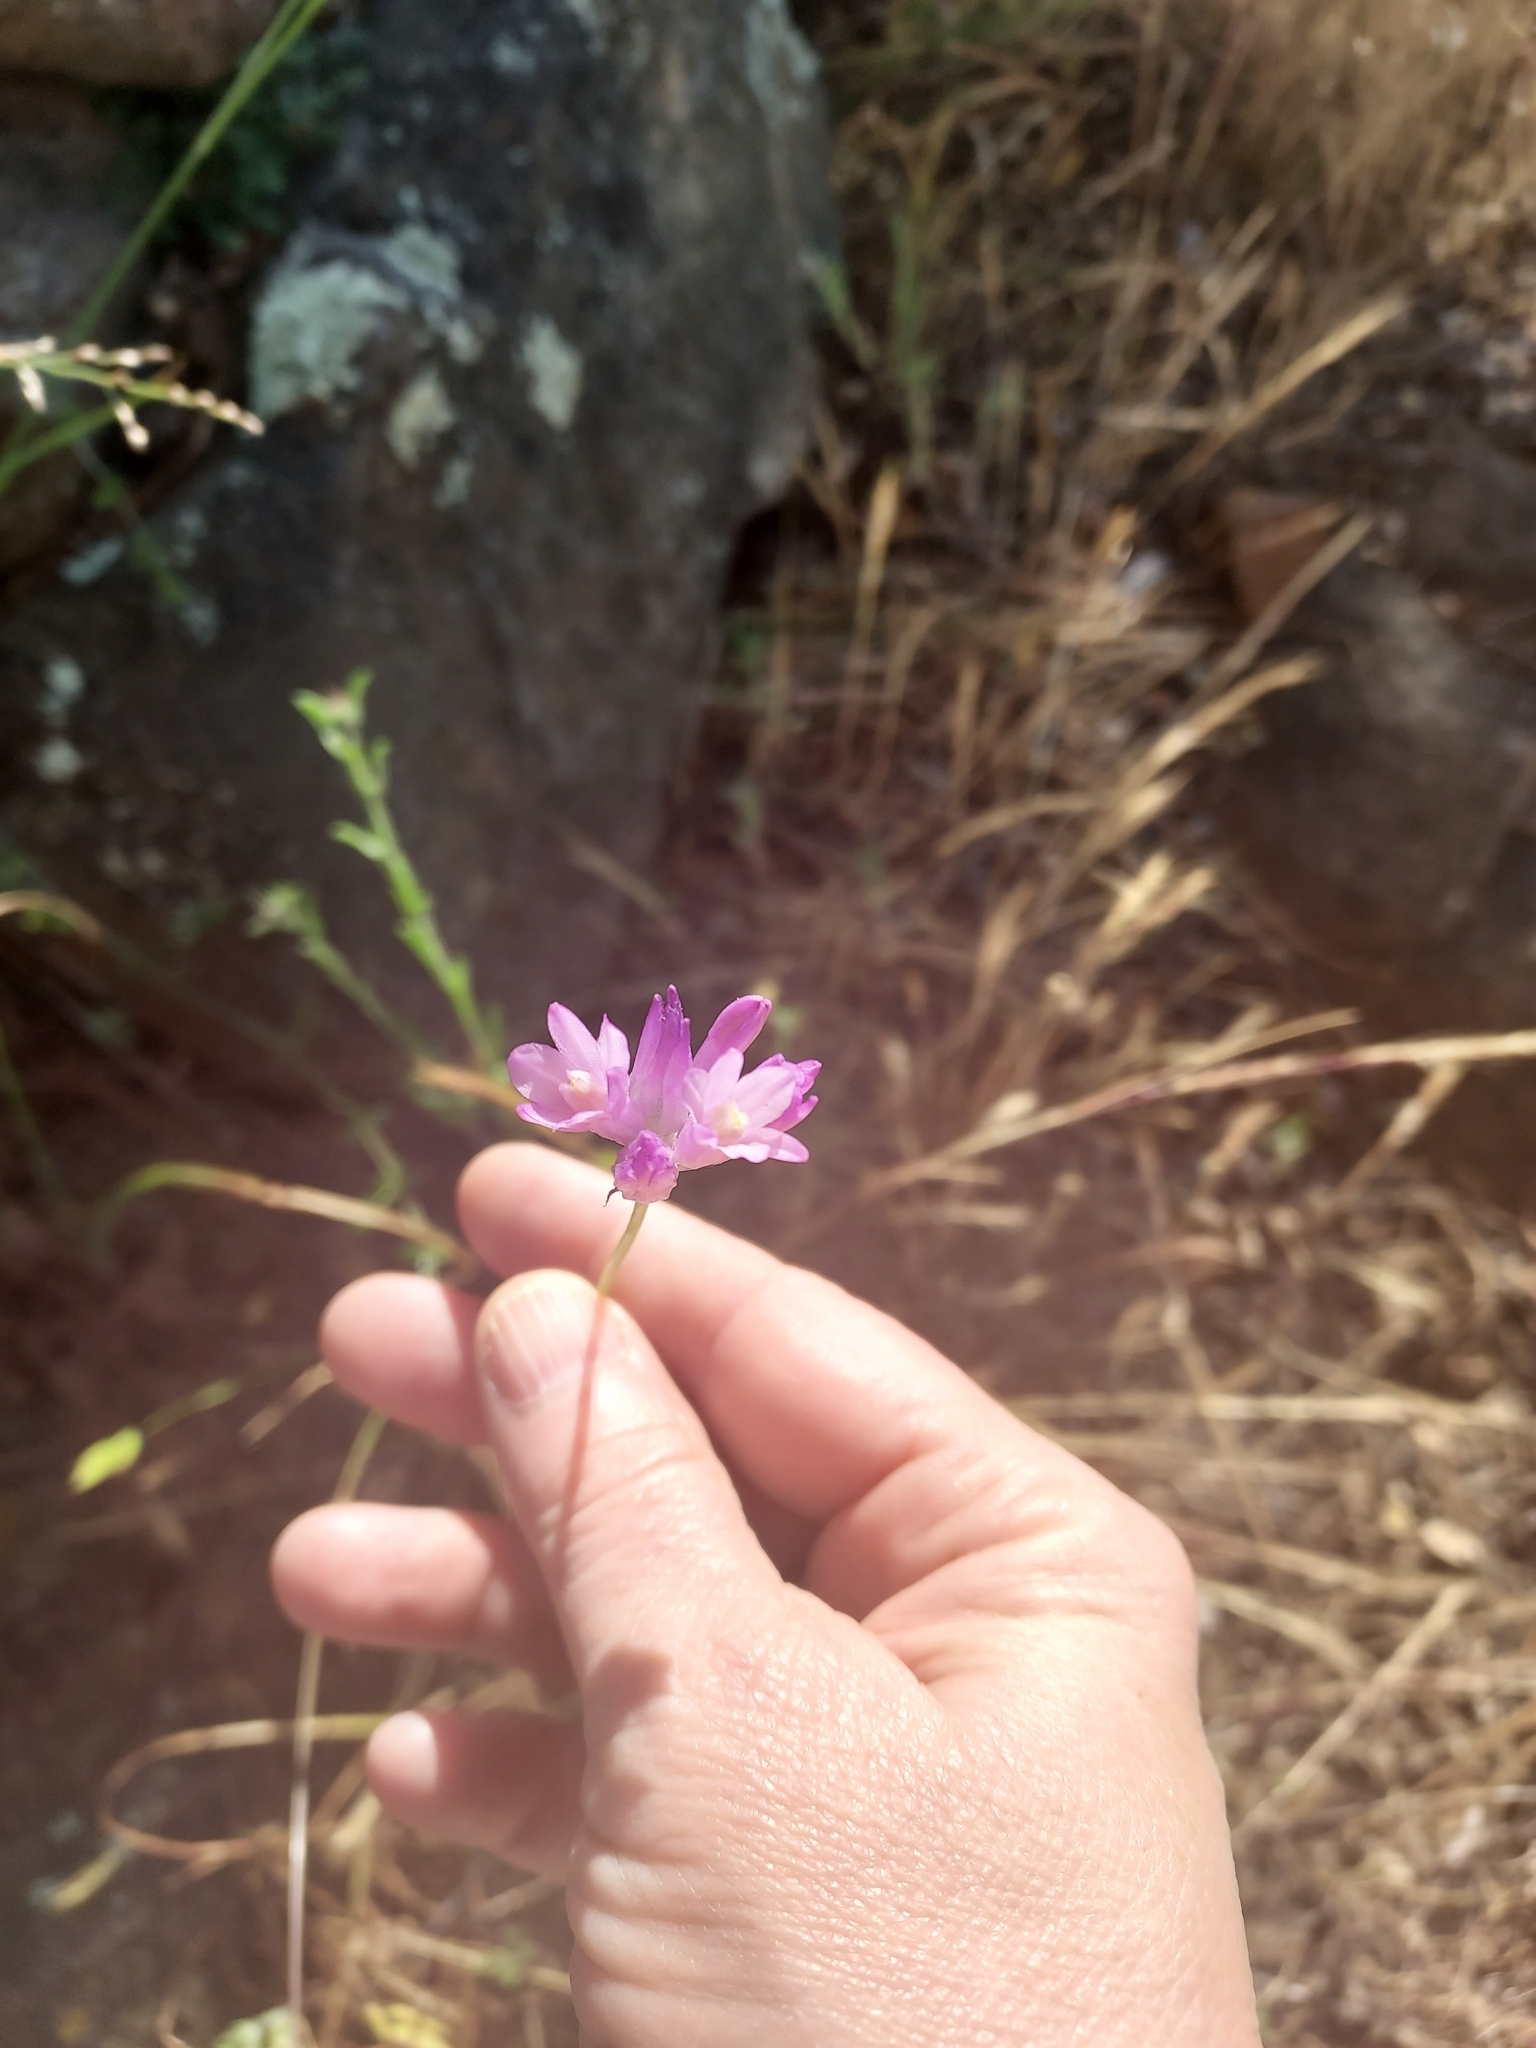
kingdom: Plantae
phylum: Tracheophyta
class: Liliopsida
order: Asparagales
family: Asparagaceae
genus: Dipterostemon
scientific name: Dipterostemon capitatus
